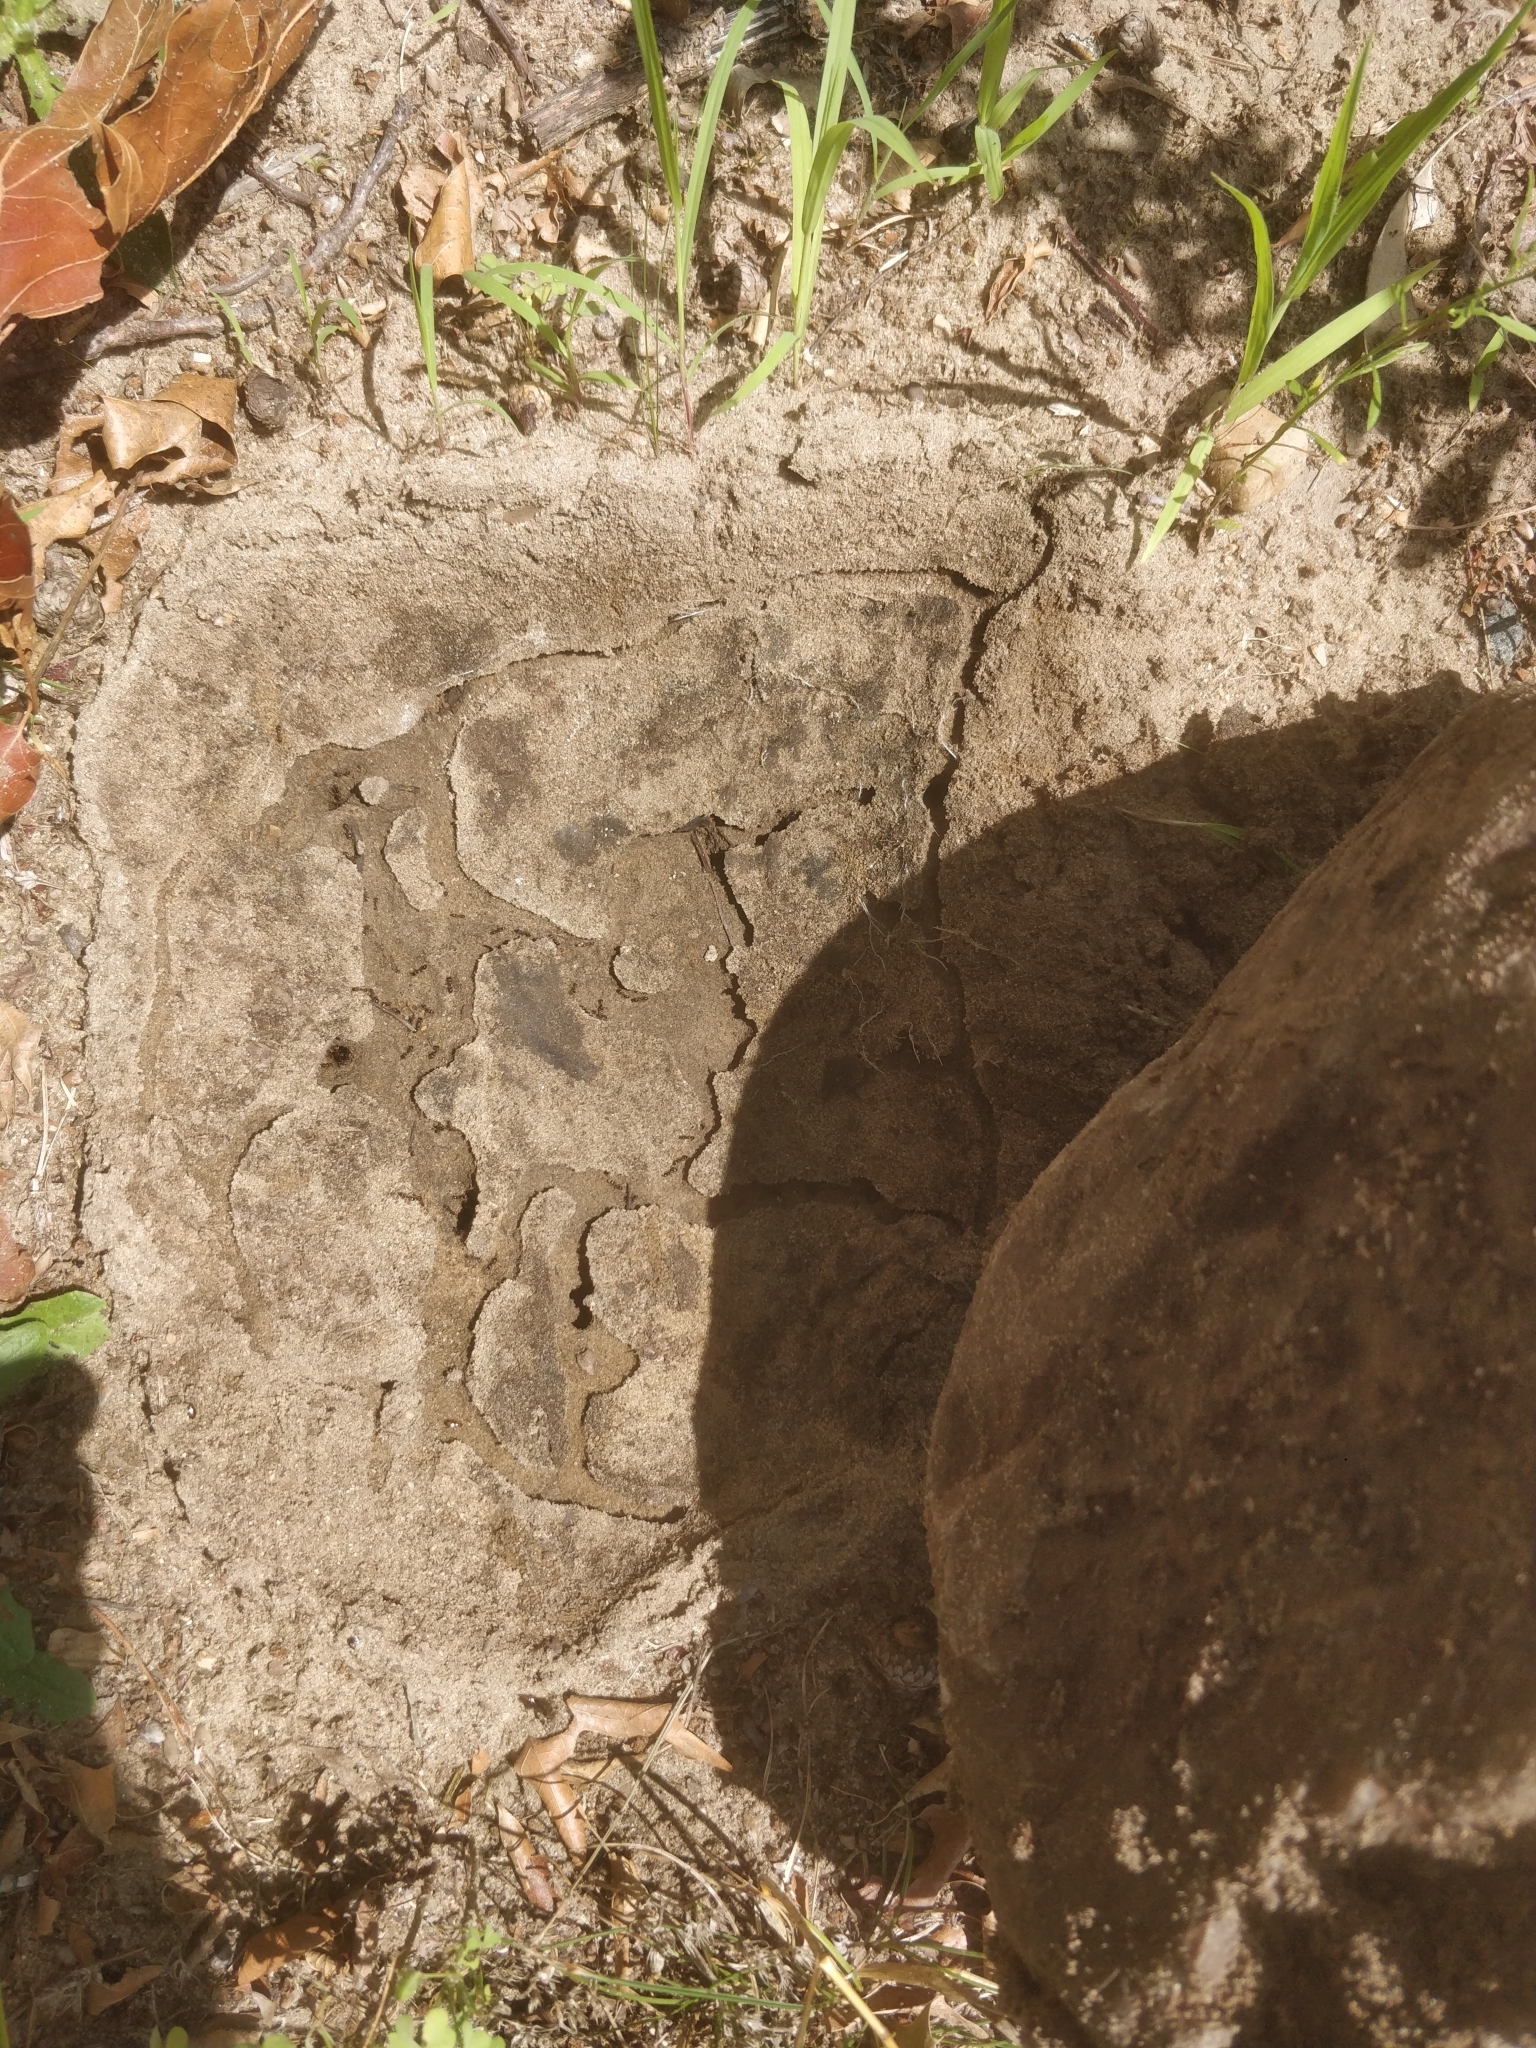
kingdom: Animalia
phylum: Arthropoda
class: Insecta
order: Hymenoptera
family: Formicidae
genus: Tetramorium
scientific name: Tetramorium immigrans
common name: Pavement ant
